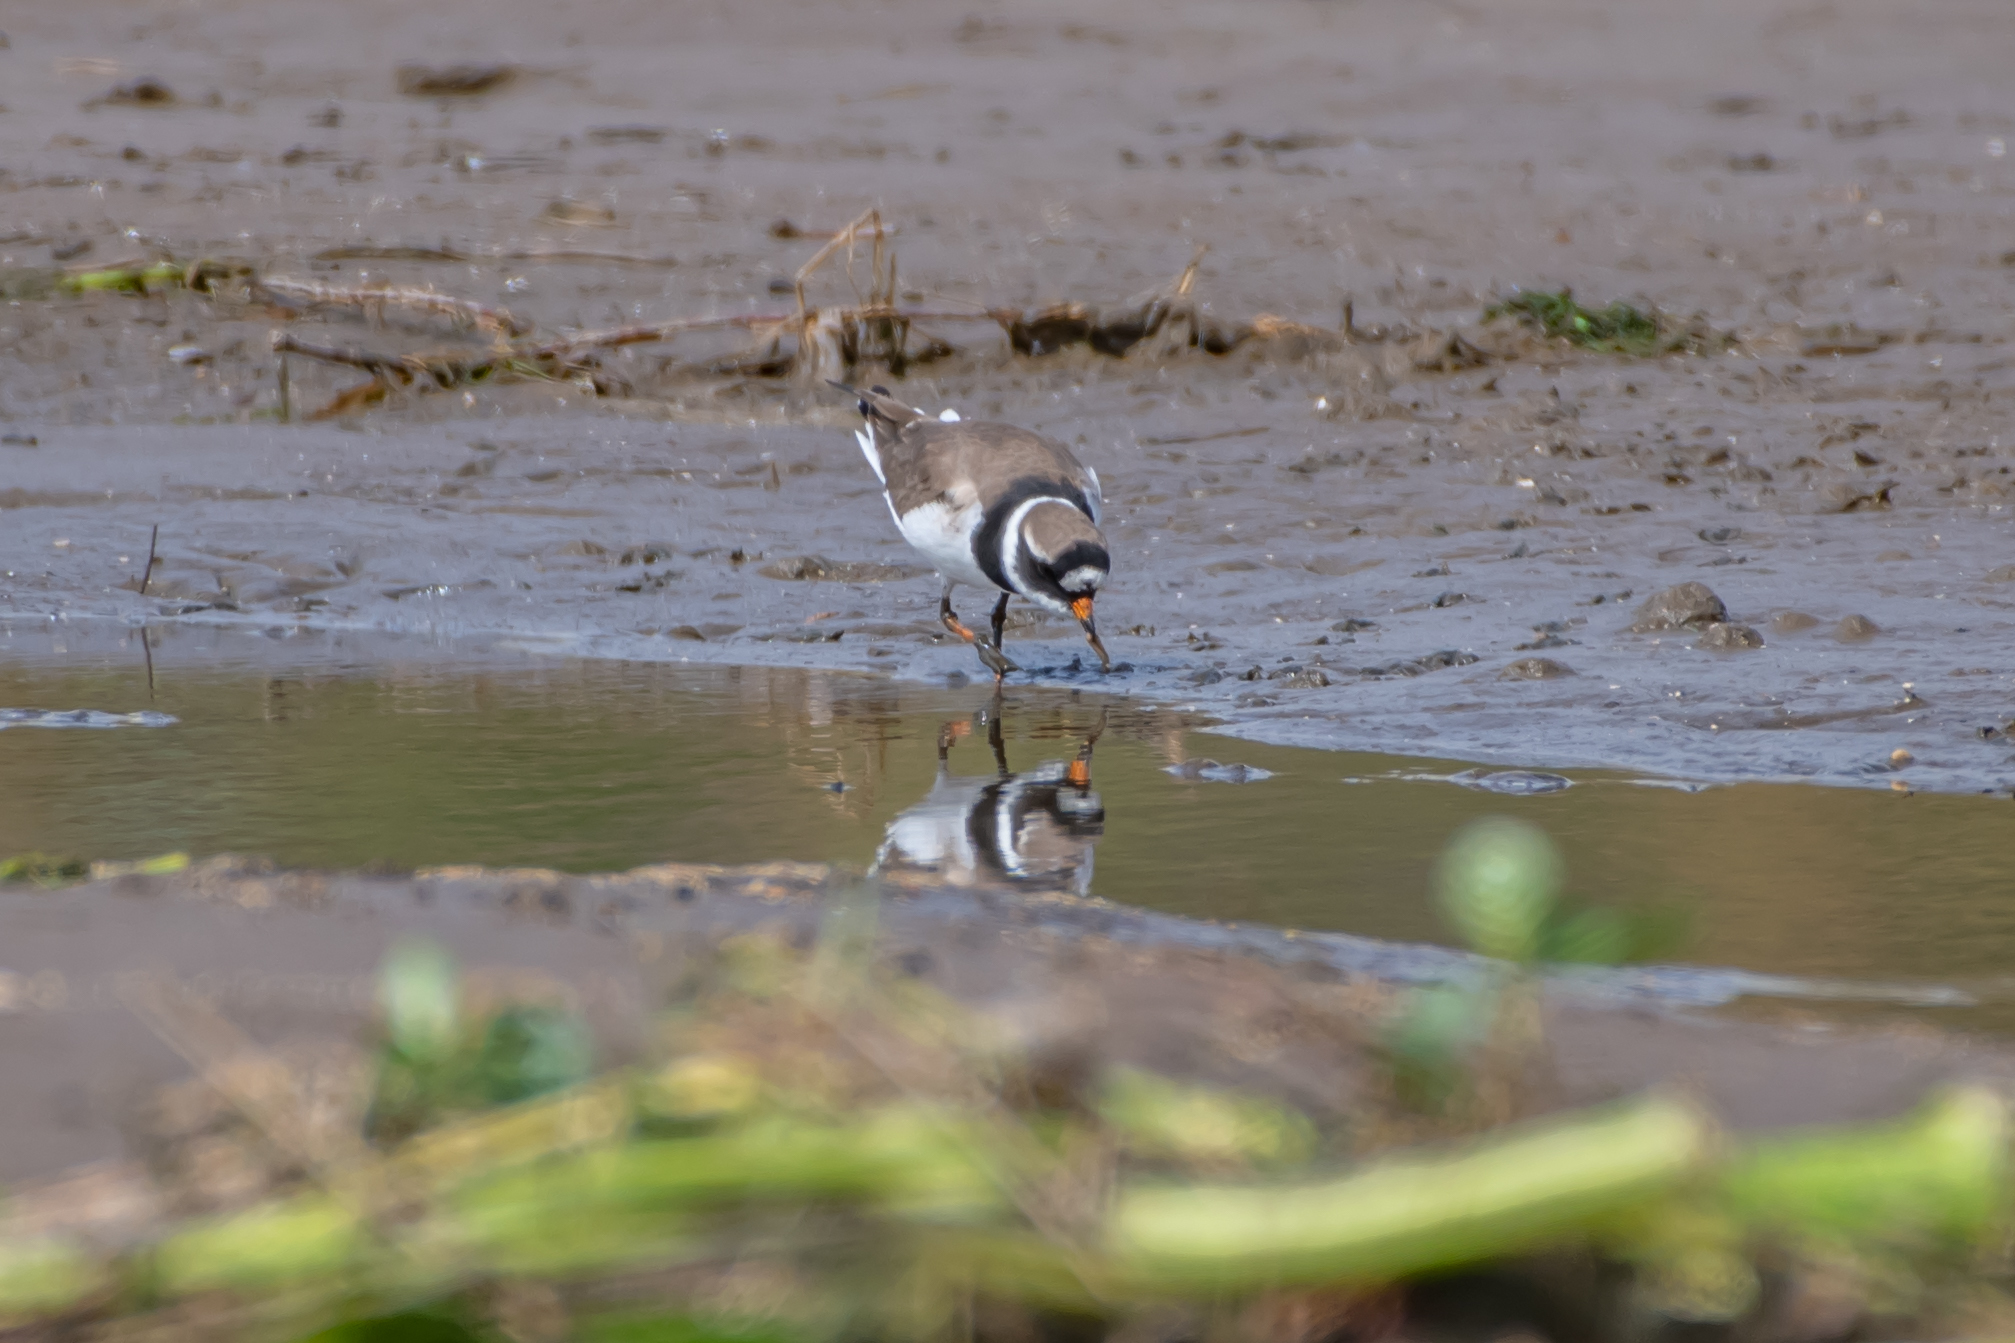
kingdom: Animalia
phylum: Chordata
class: Aves
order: Charadriiformes
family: Charadriidae
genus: Charadrius
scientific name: Charadrius hiaticula
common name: Common ringed plover
